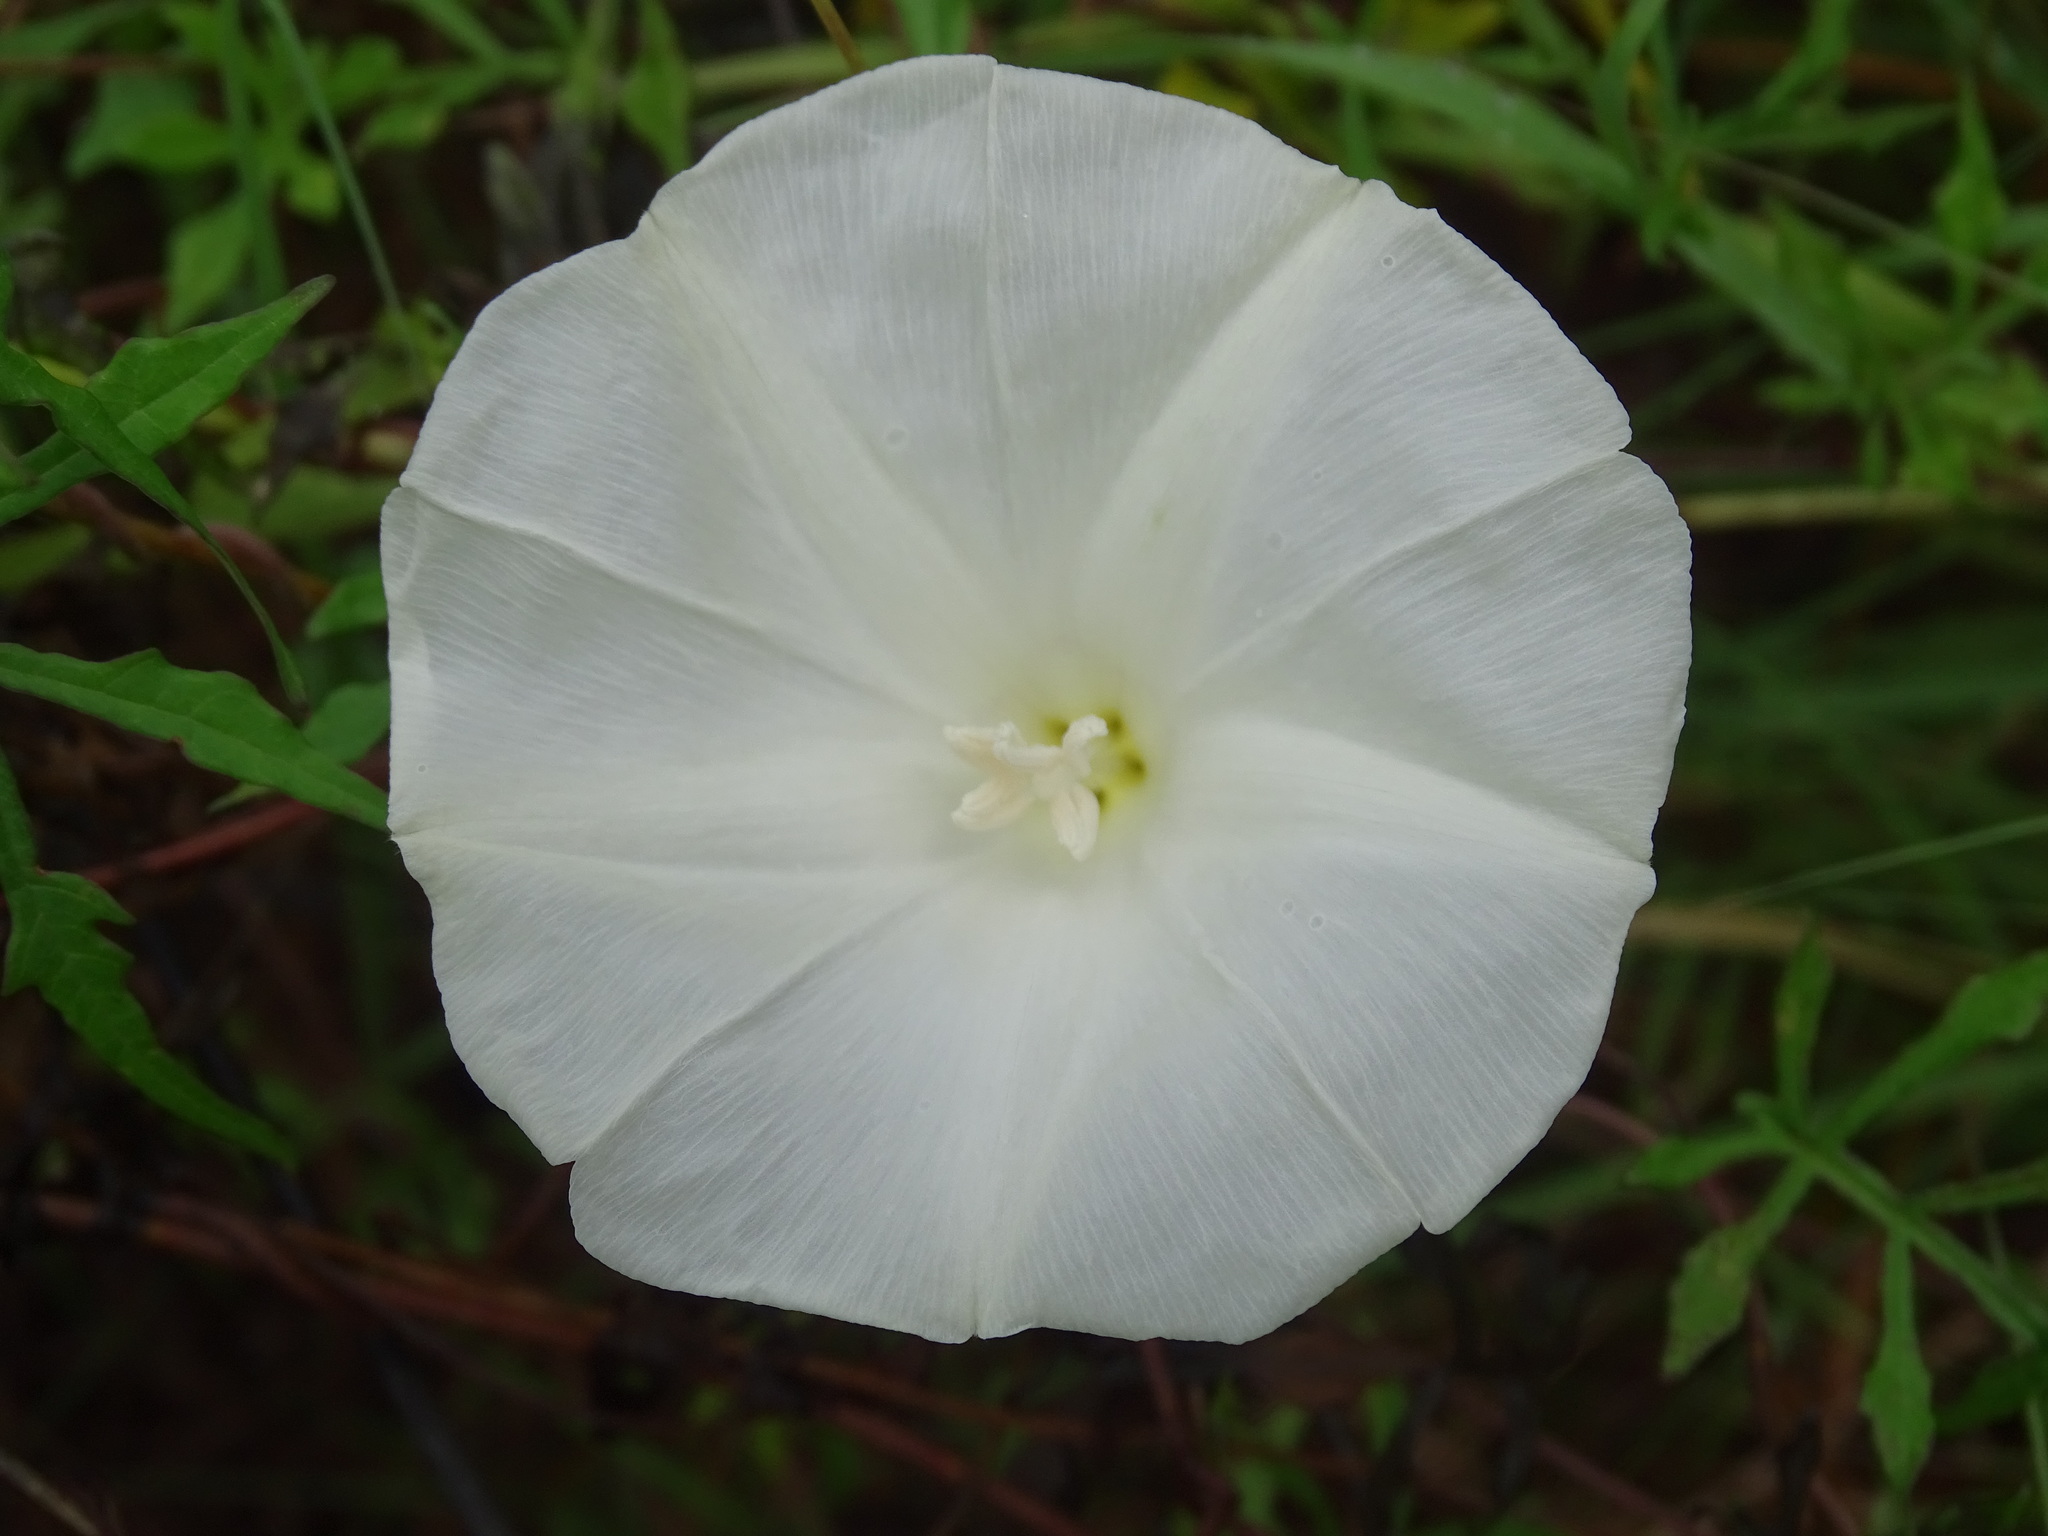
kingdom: Plantae
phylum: Tracheophyta
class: Magnoliopsida
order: Solanales
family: Convolvulaceae
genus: Operculina
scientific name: Operculina pinnatifida
